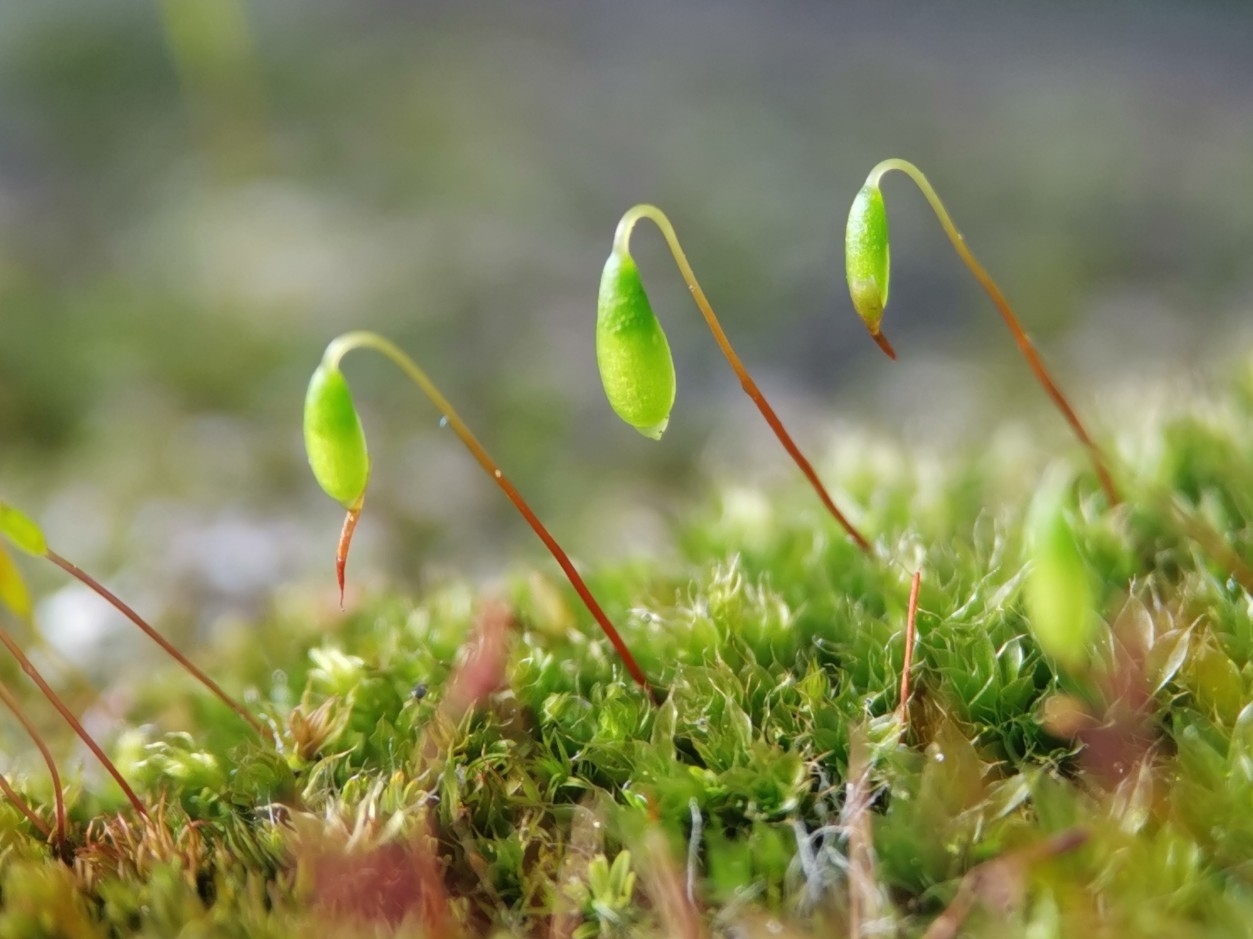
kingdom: Plantae
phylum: Bryophyta
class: Bryopsida
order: Bryales
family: Bryaceae
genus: Rosulabryum
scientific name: Rosulabryum capillare
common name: Capillary thread-moss
